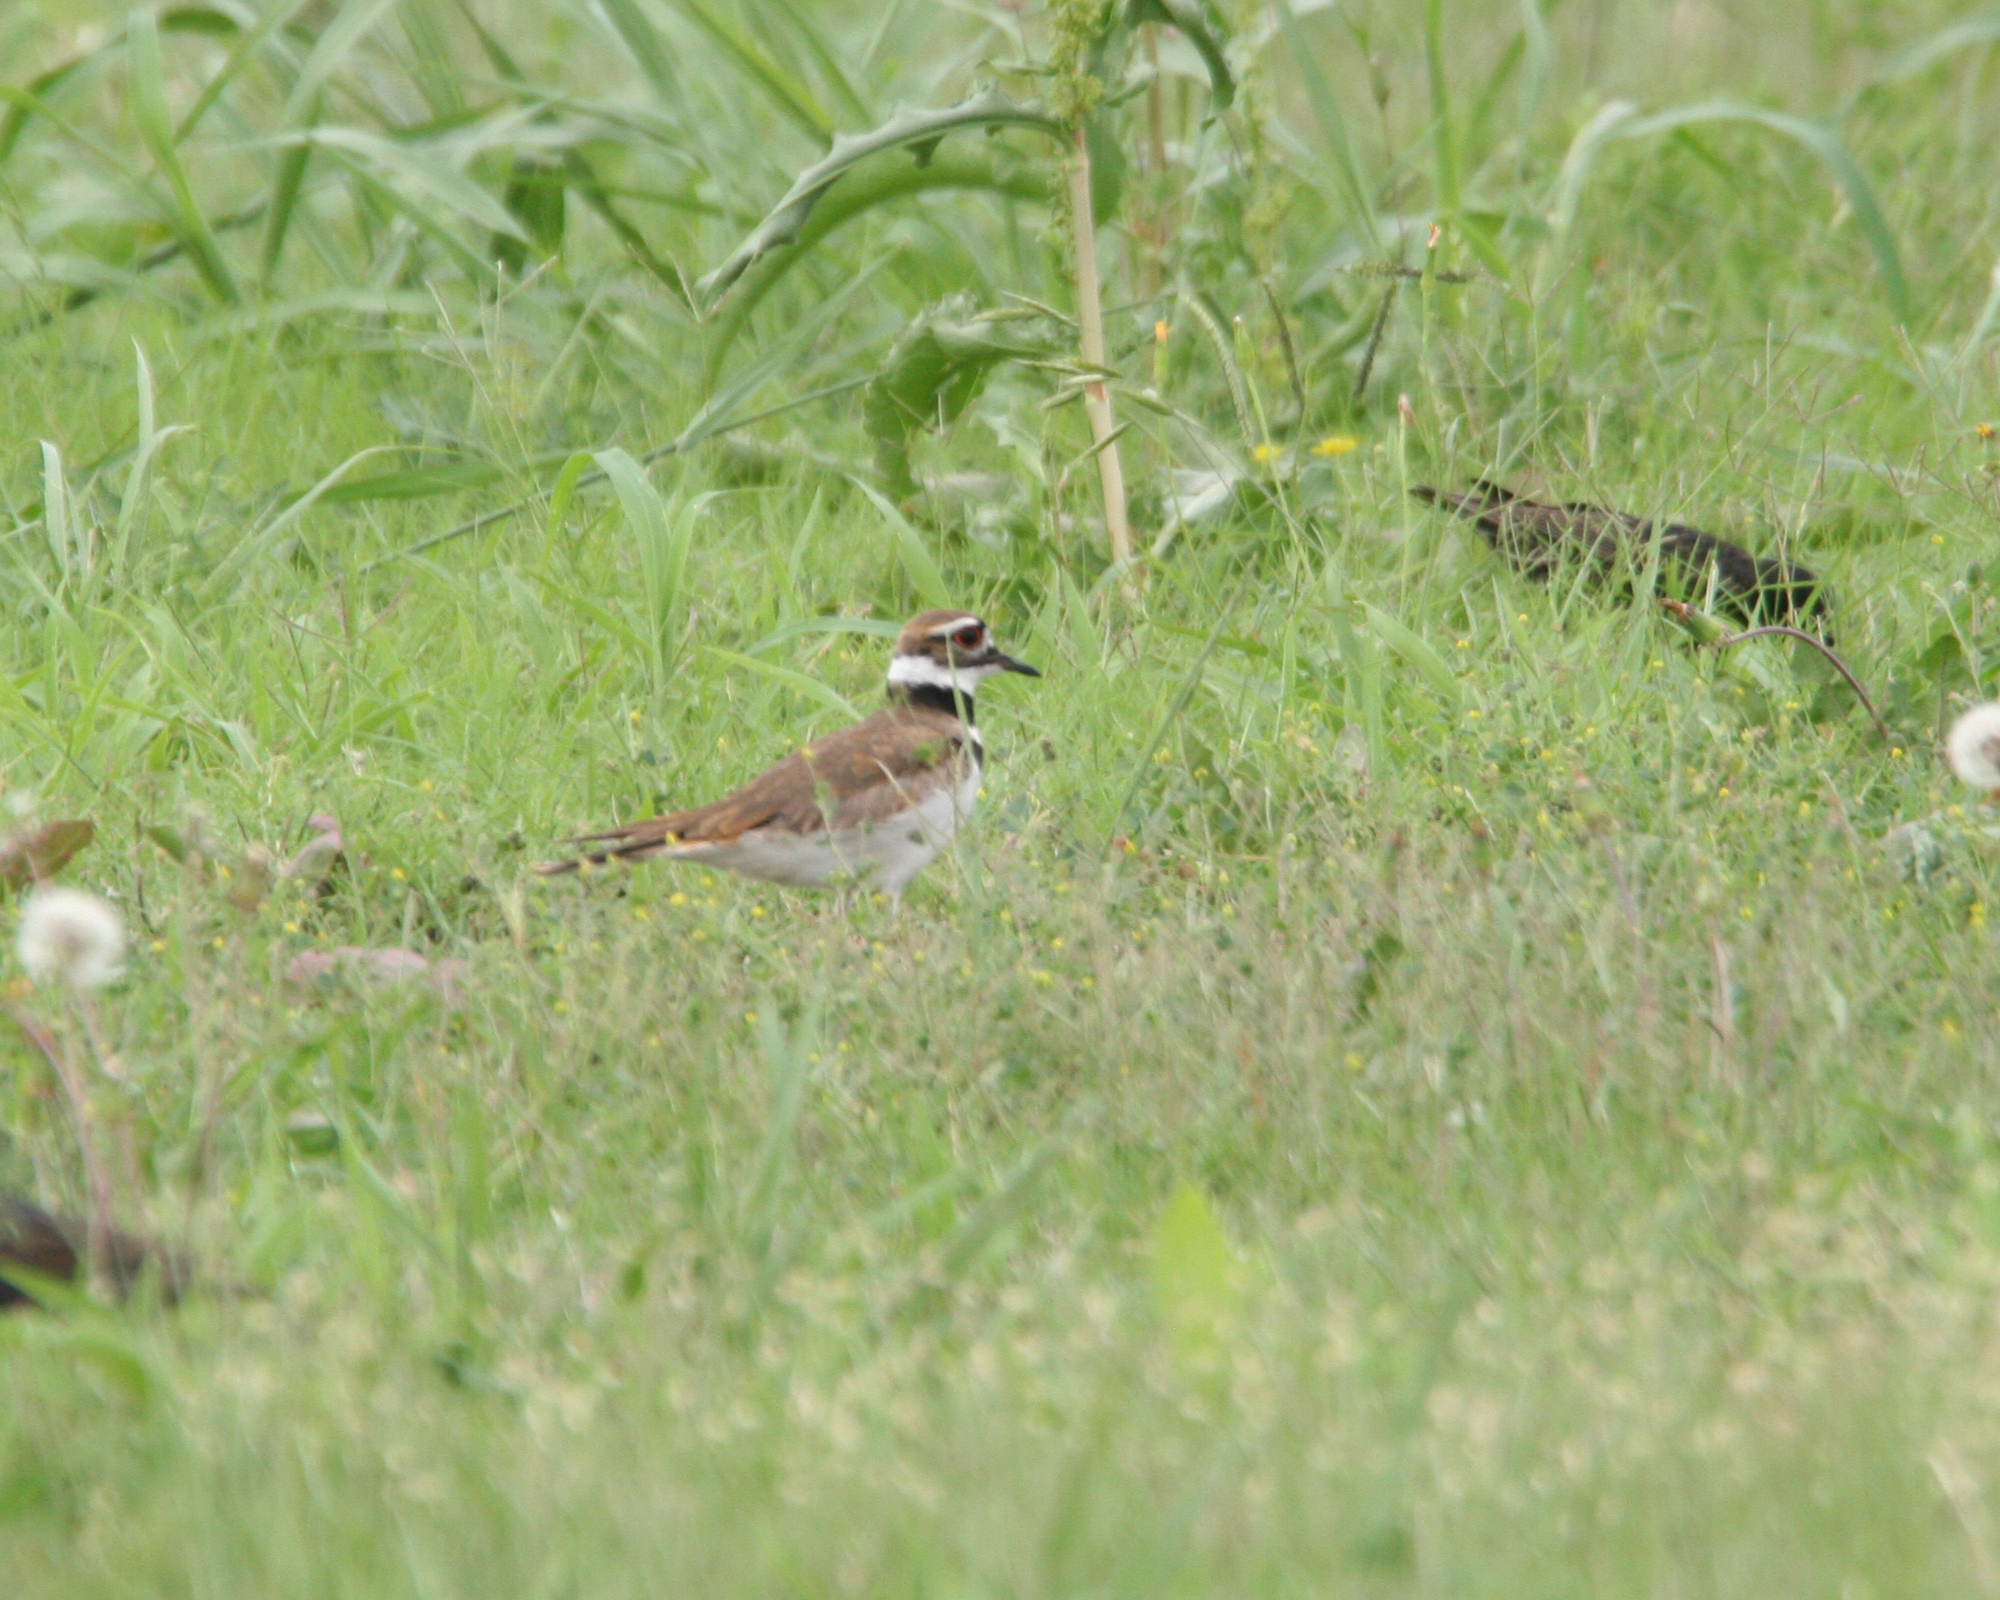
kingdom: Animalia
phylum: Chordata
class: Aves
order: Charadriiformes
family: Charadriidae
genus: Charadrius
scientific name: Charadrius vociferus
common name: Killdeer
